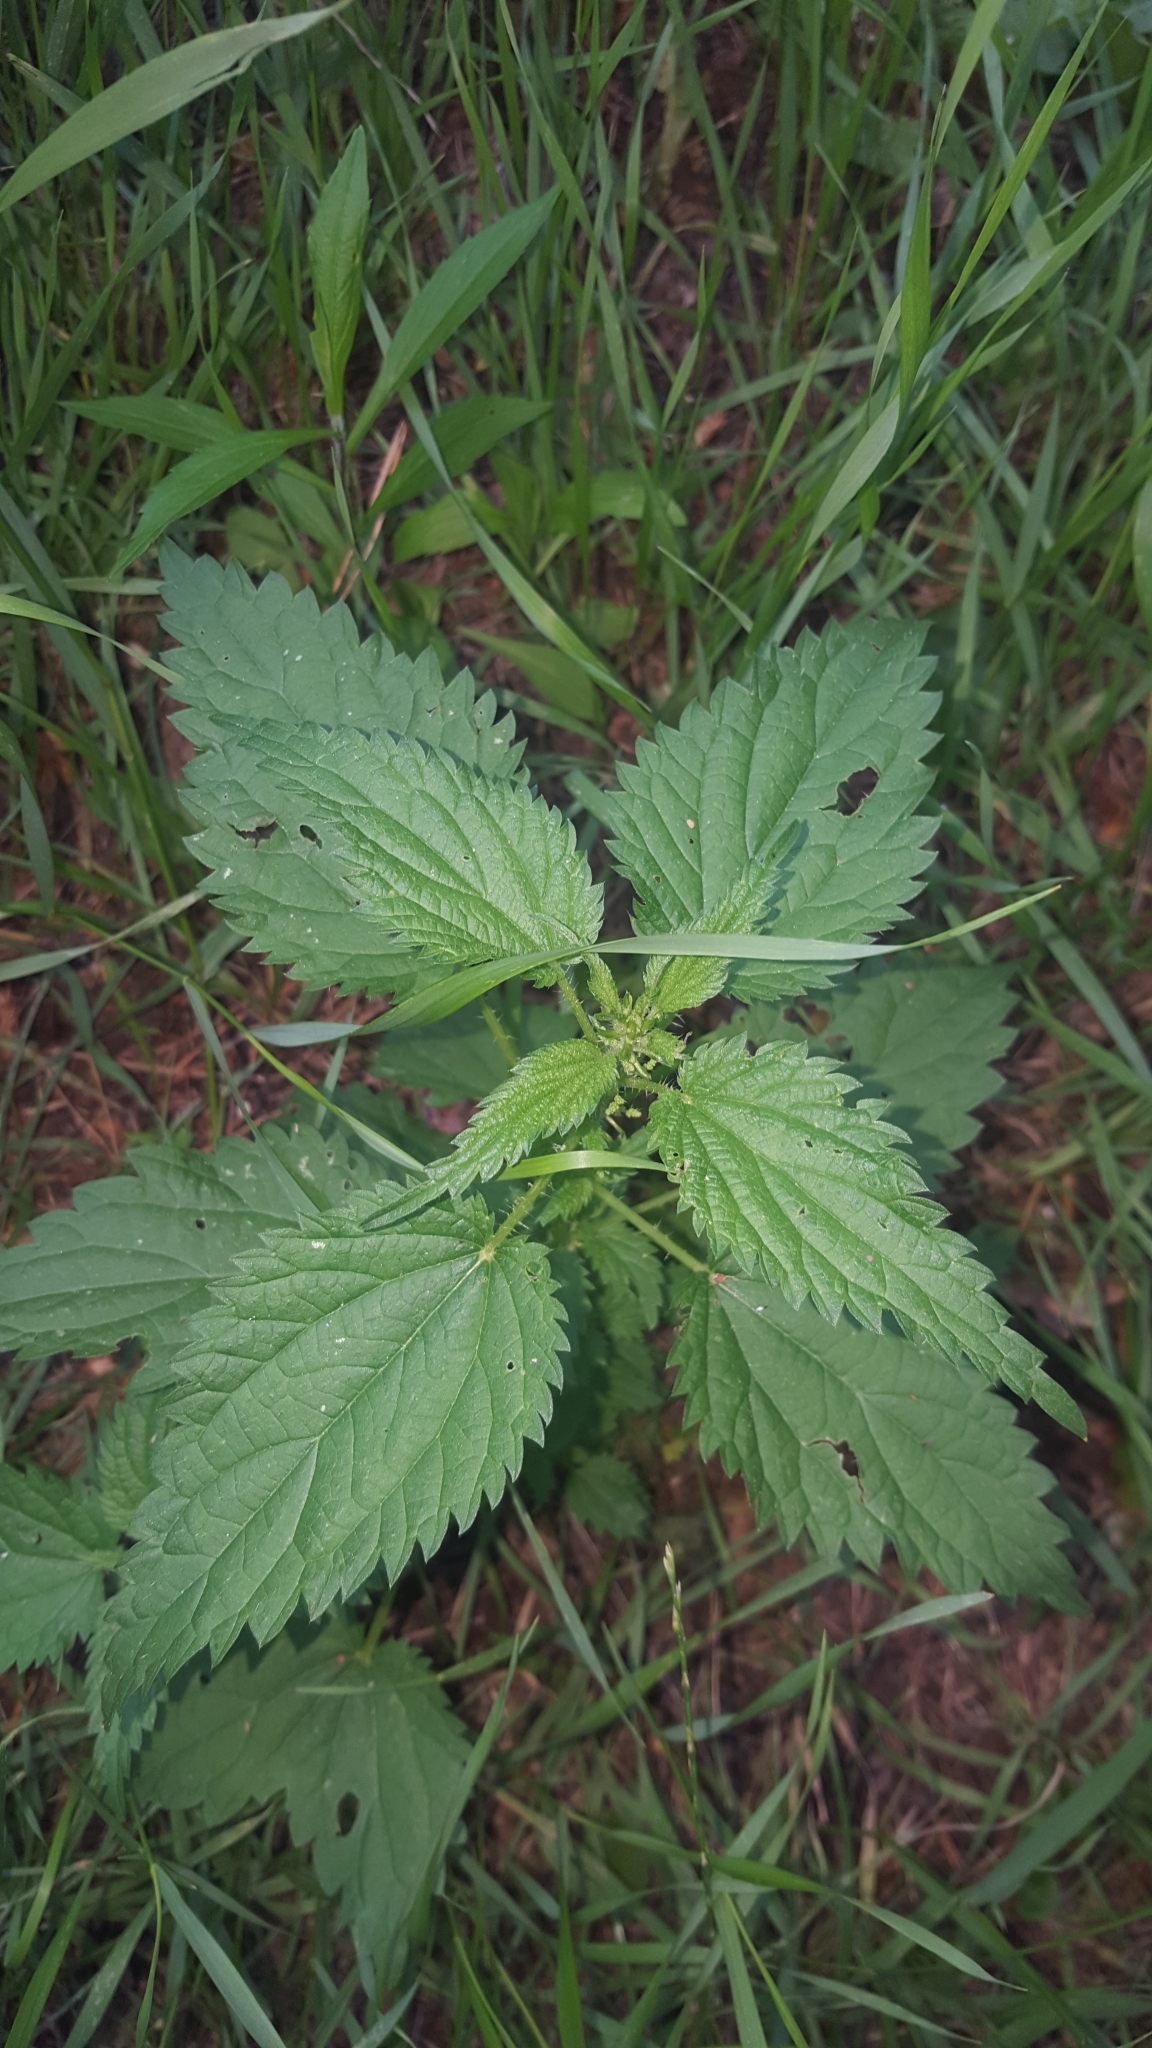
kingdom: Plantae
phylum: Tracheophyta
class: Magnoliopsida
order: Rosales
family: Urticaceae
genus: Urtica
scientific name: Urtica dioica
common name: Common nettle
